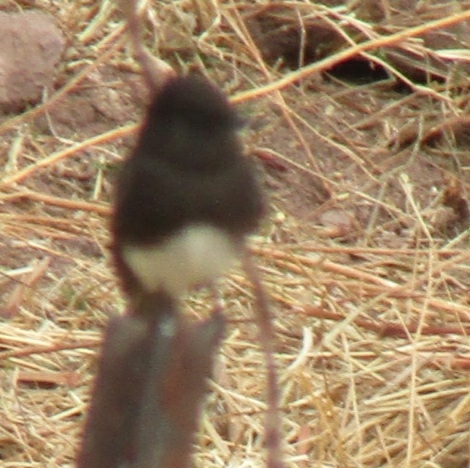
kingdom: Animalia
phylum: Chordata
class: Aves
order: Passeriformes
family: Tyrannidae
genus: Sayornis
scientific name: Sayornis nigricans
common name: Black phoebe
